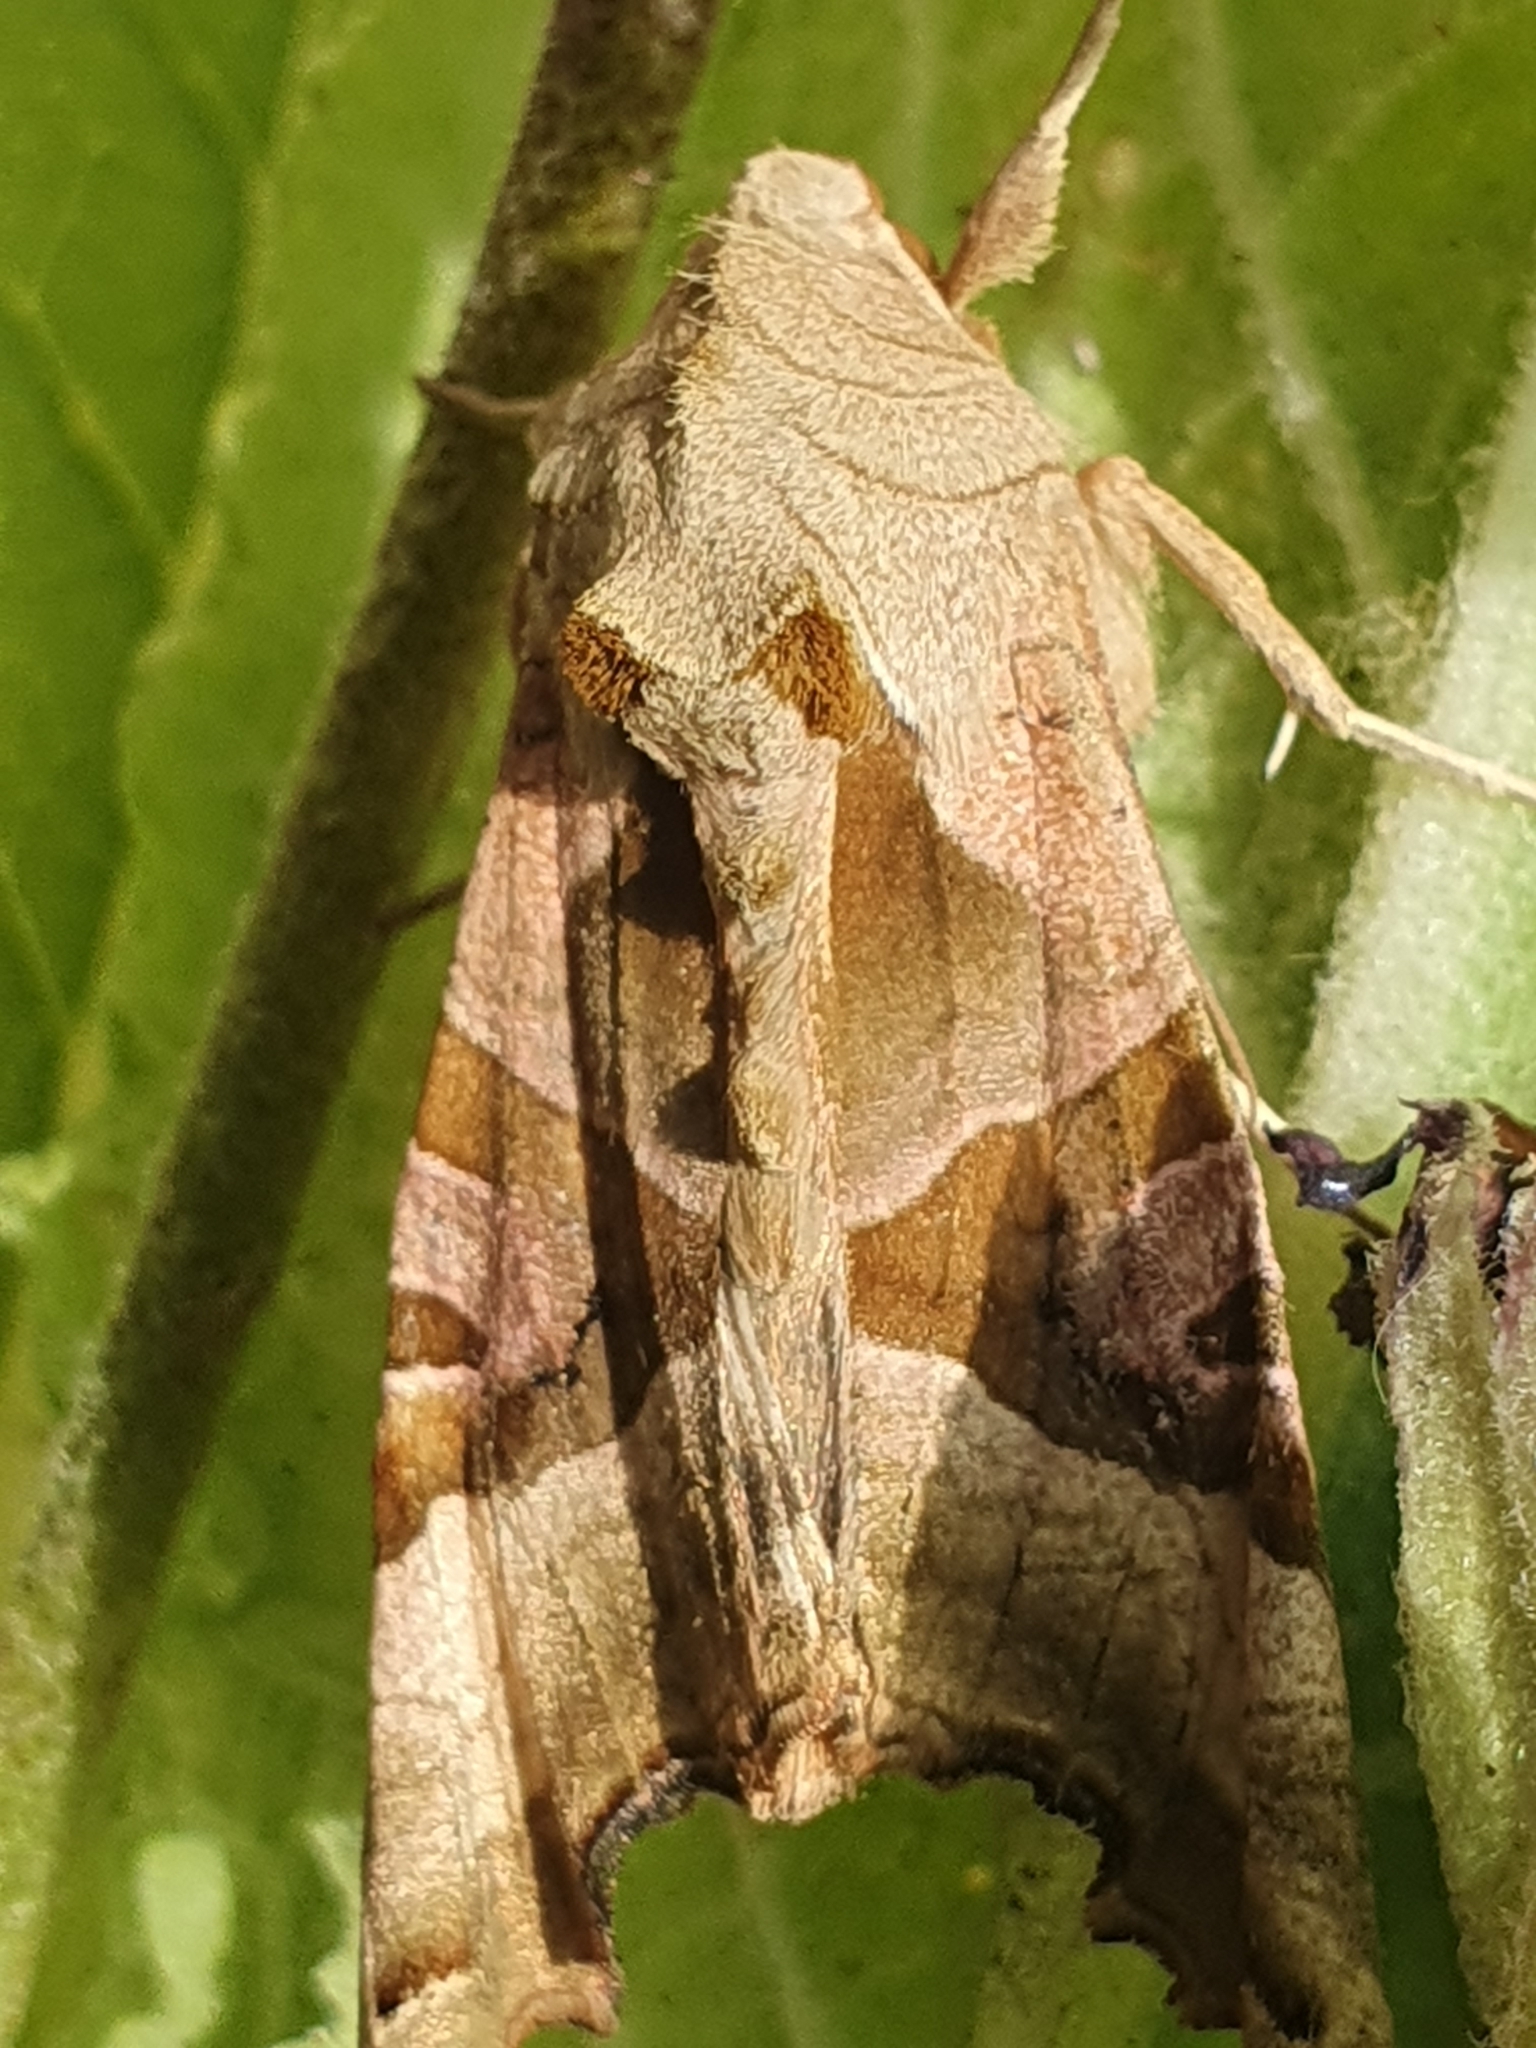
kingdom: Animalia
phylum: Arthropoda
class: Insecta
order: Lepidoptera
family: Noctuidae
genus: Phlogophora
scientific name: Phlogophora meticulosa
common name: Angle shades
